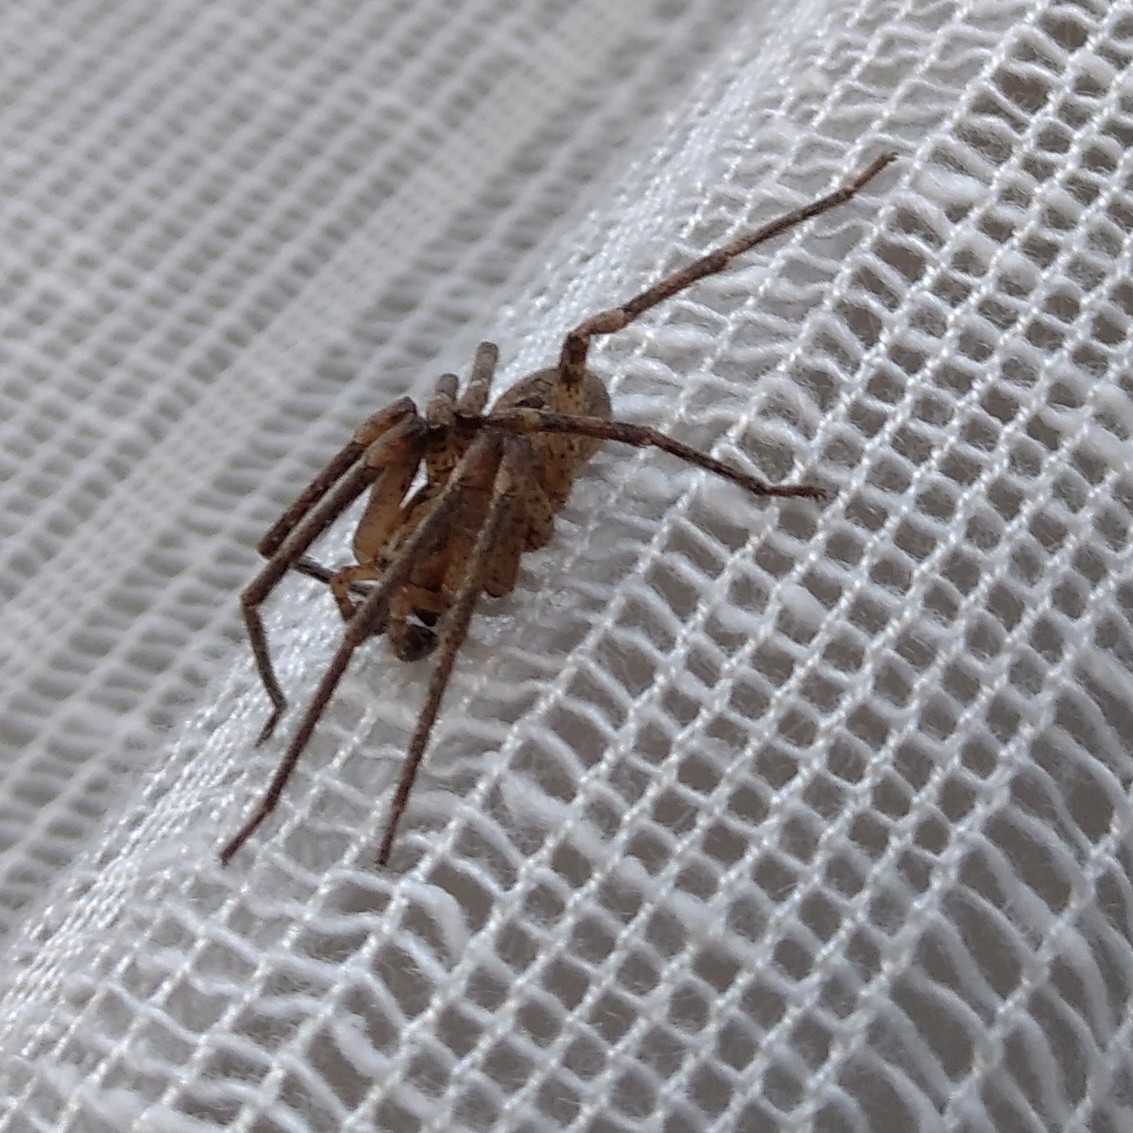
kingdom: Animalia
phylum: Arthropoda
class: Arachnida
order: Araneae
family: Zoropsidae
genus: Zoropsis
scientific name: Zoropsis spinimana
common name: Zoropsid spider
